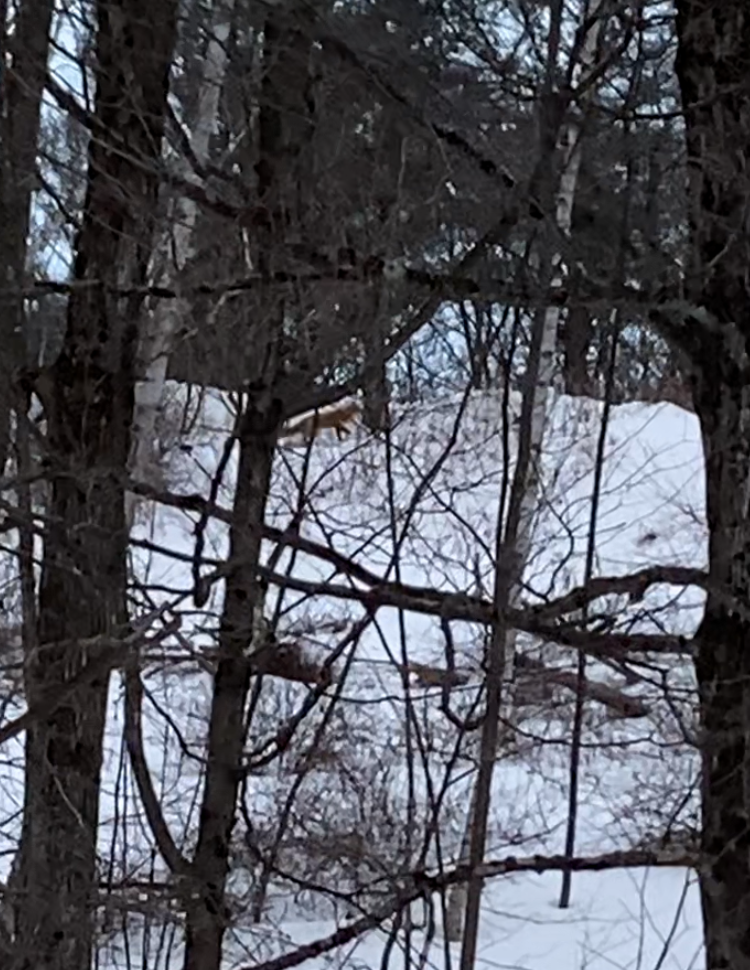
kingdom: Animalia
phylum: Chordata
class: Mammalia
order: Carnivora
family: Canidae
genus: Vulpes
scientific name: Vulpes vulpes
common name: Red fox
